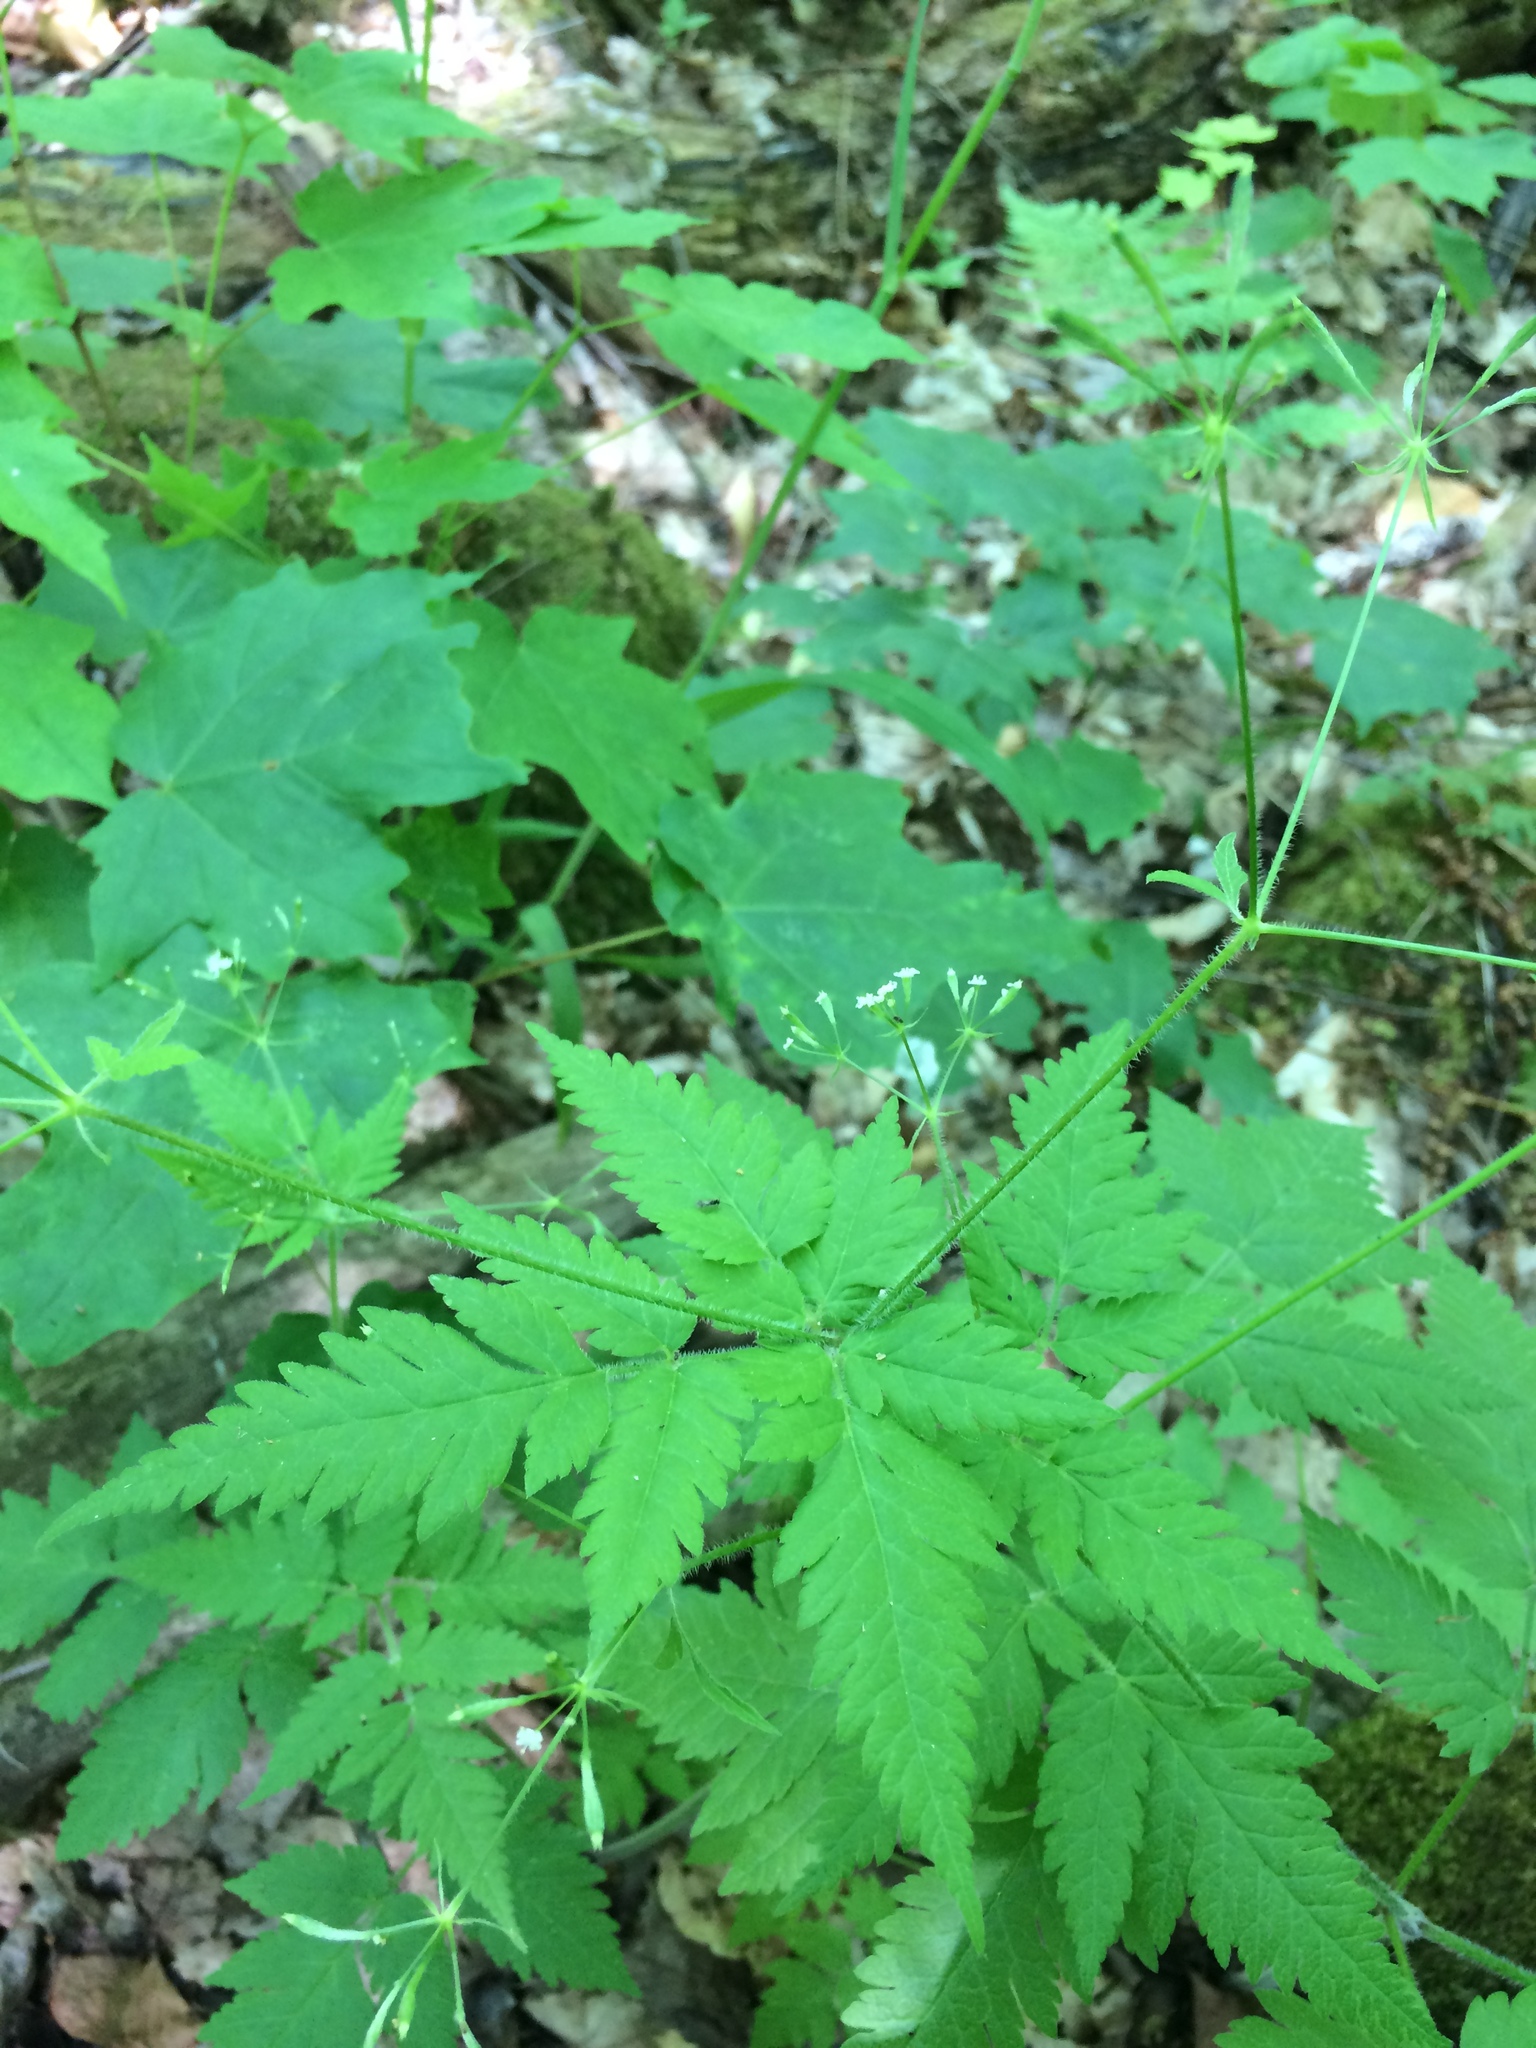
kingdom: Plantae
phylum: Tracheophyta
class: Magnoliopsida
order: Apiales
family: Apiaceae
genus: Osmorhiza
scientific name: Osmorhiza claytonii
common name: Hairy sweet cicely
